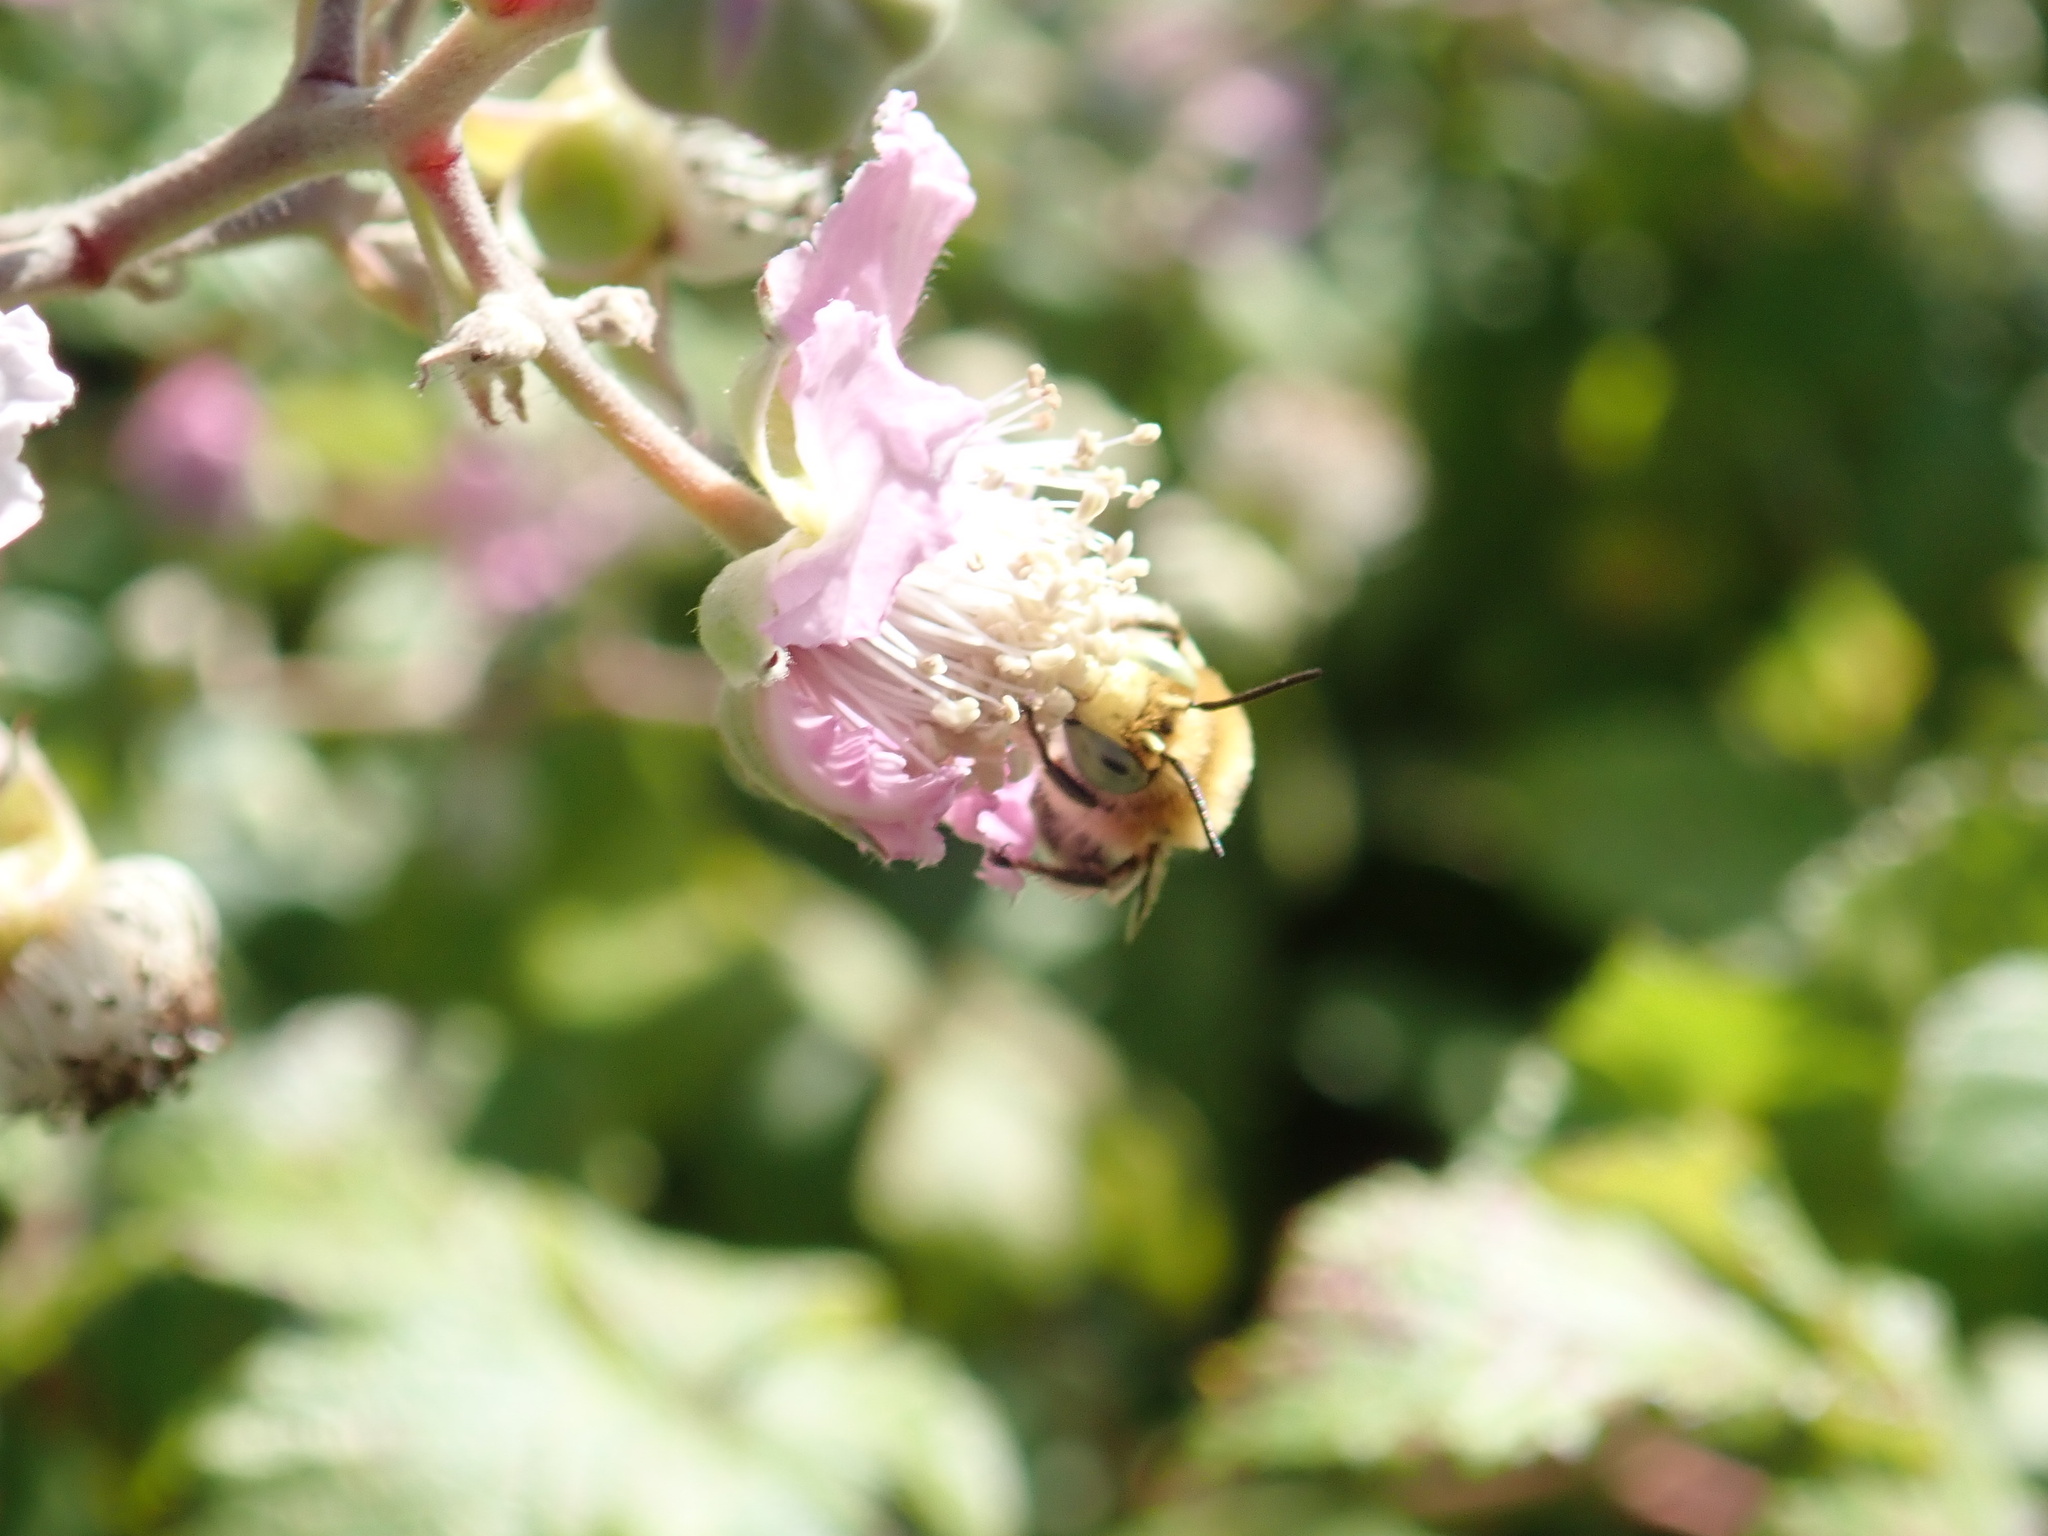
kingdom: Animalia
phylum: Arthropoda
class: Insecta
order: Hymenoptera
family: Apidae
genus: Anthophora
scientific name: Anthophora bimaculata
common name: Green-eyed flower bee
